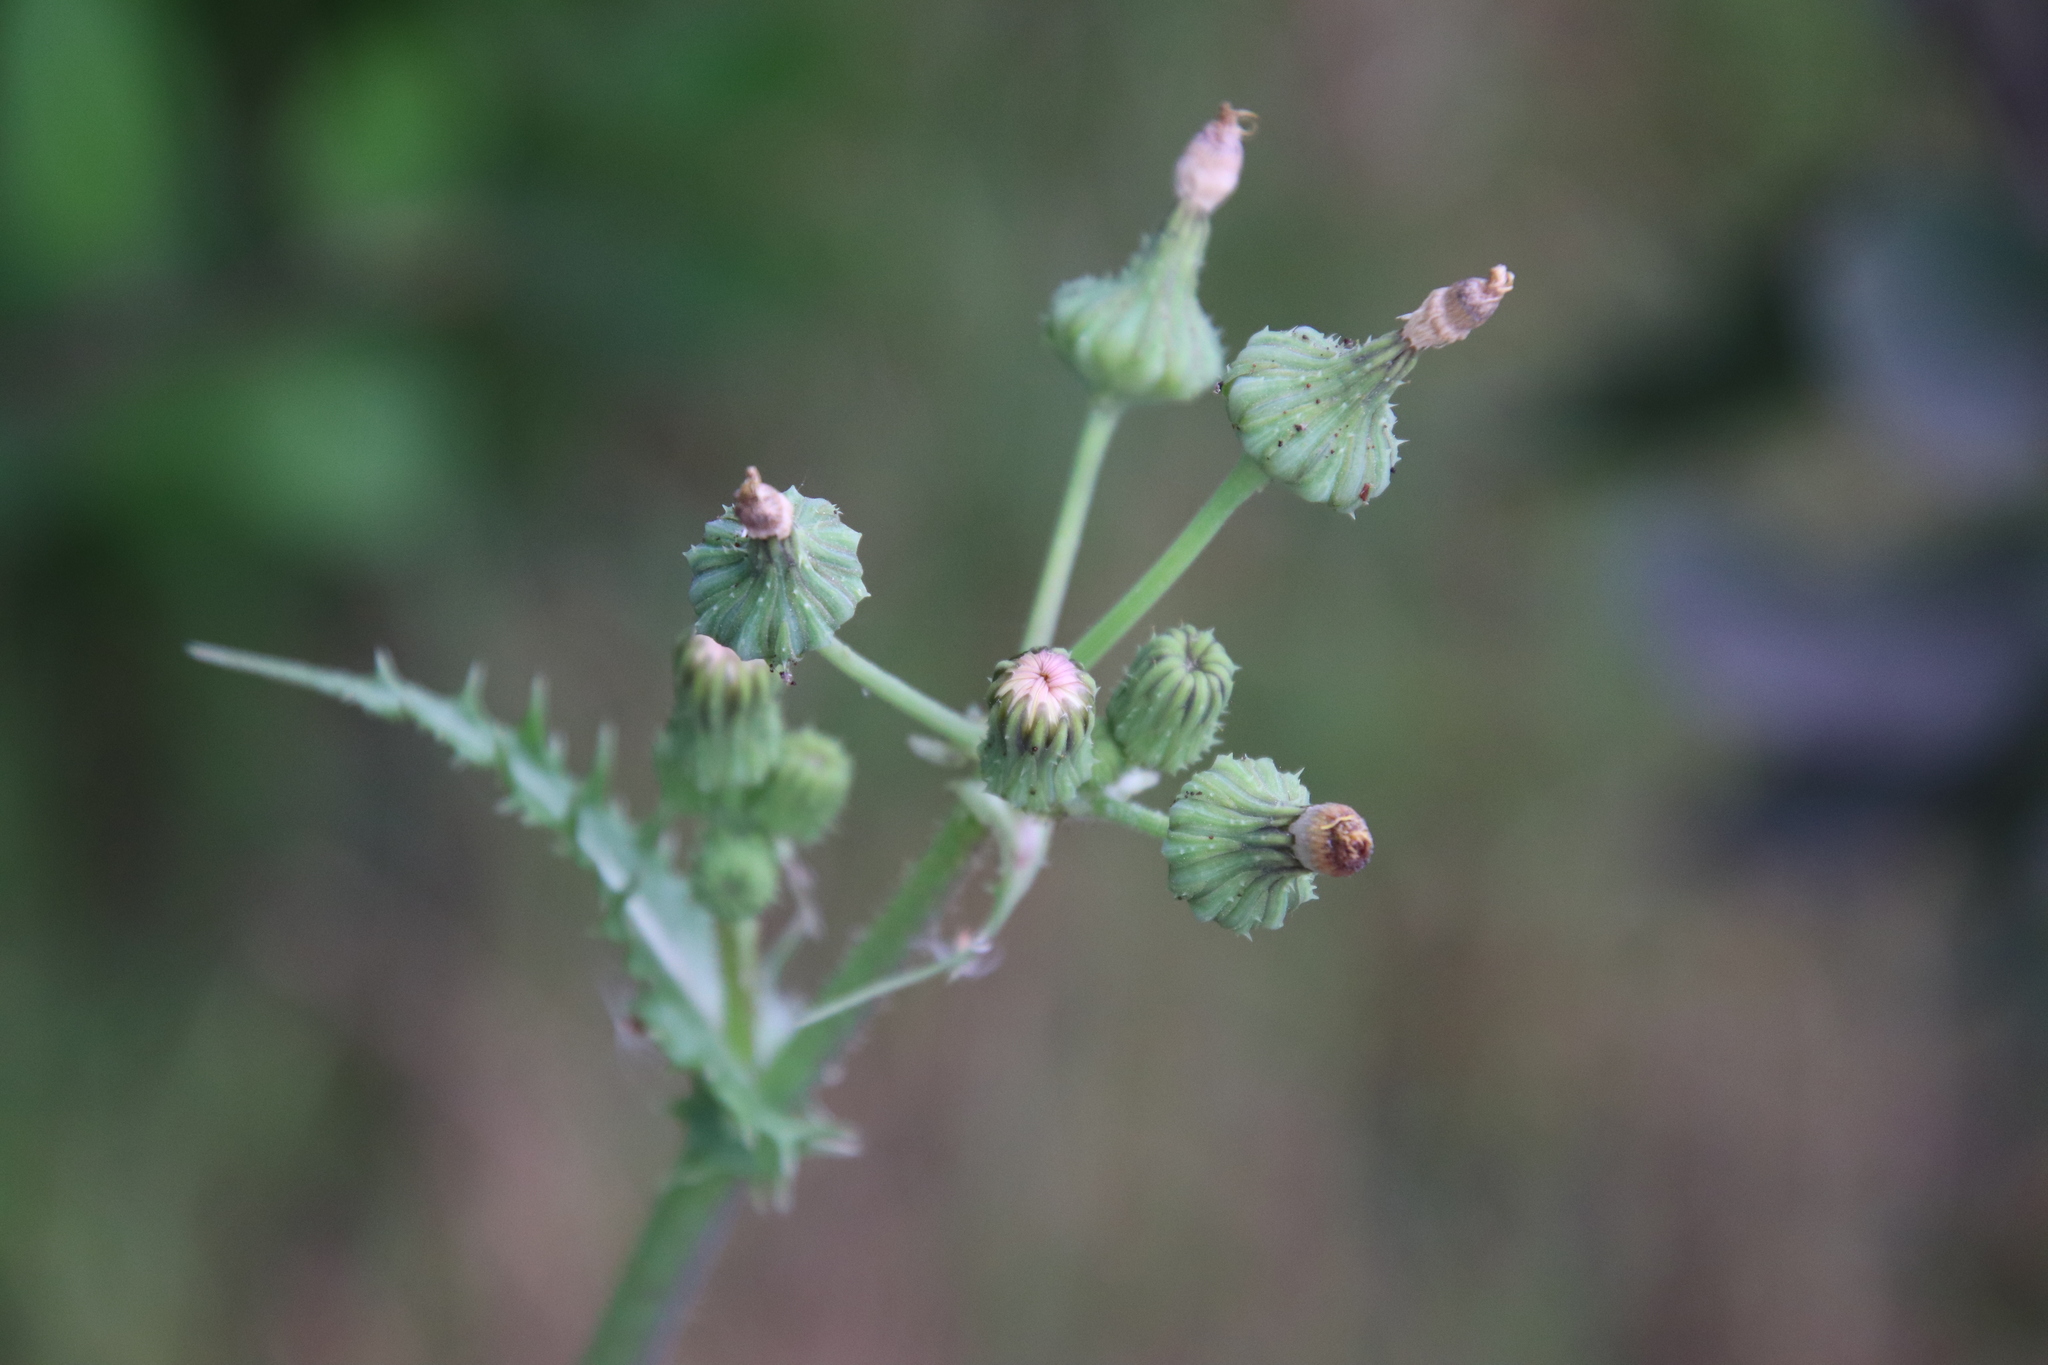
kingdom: Plantae
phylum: Tracheophyta
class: Magnoliopsida
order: Asterales
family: Asteraceae
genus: Sonchus
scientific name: Sonchus asper
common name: Prickly sow-thistle
